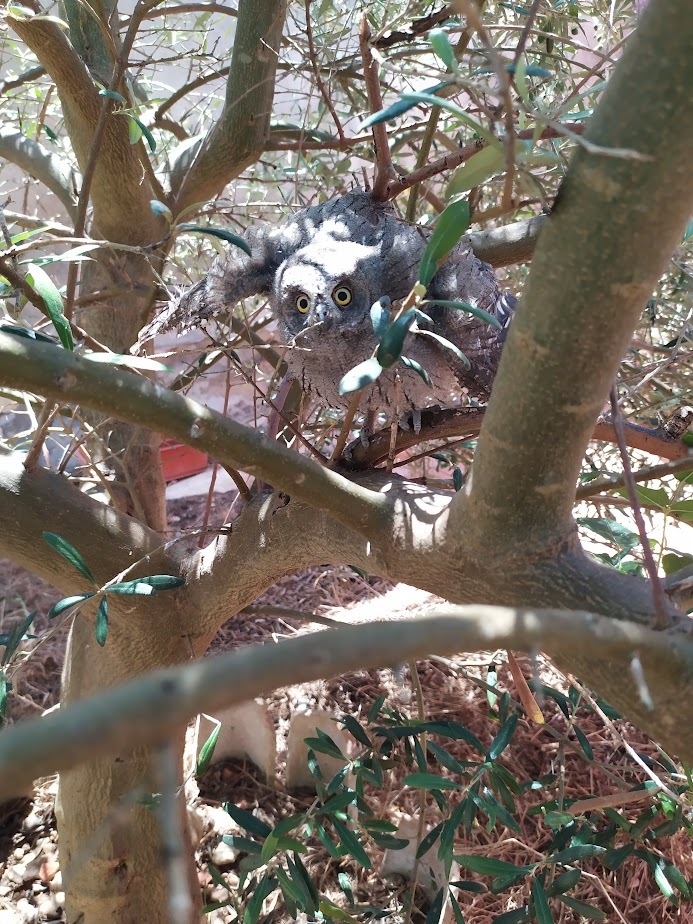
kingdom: Animalia
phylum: Chordata
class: Aves
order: Strigiformes
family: Strigidae
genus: Otus
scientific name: Otus scops
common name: Eurasian scops owl
